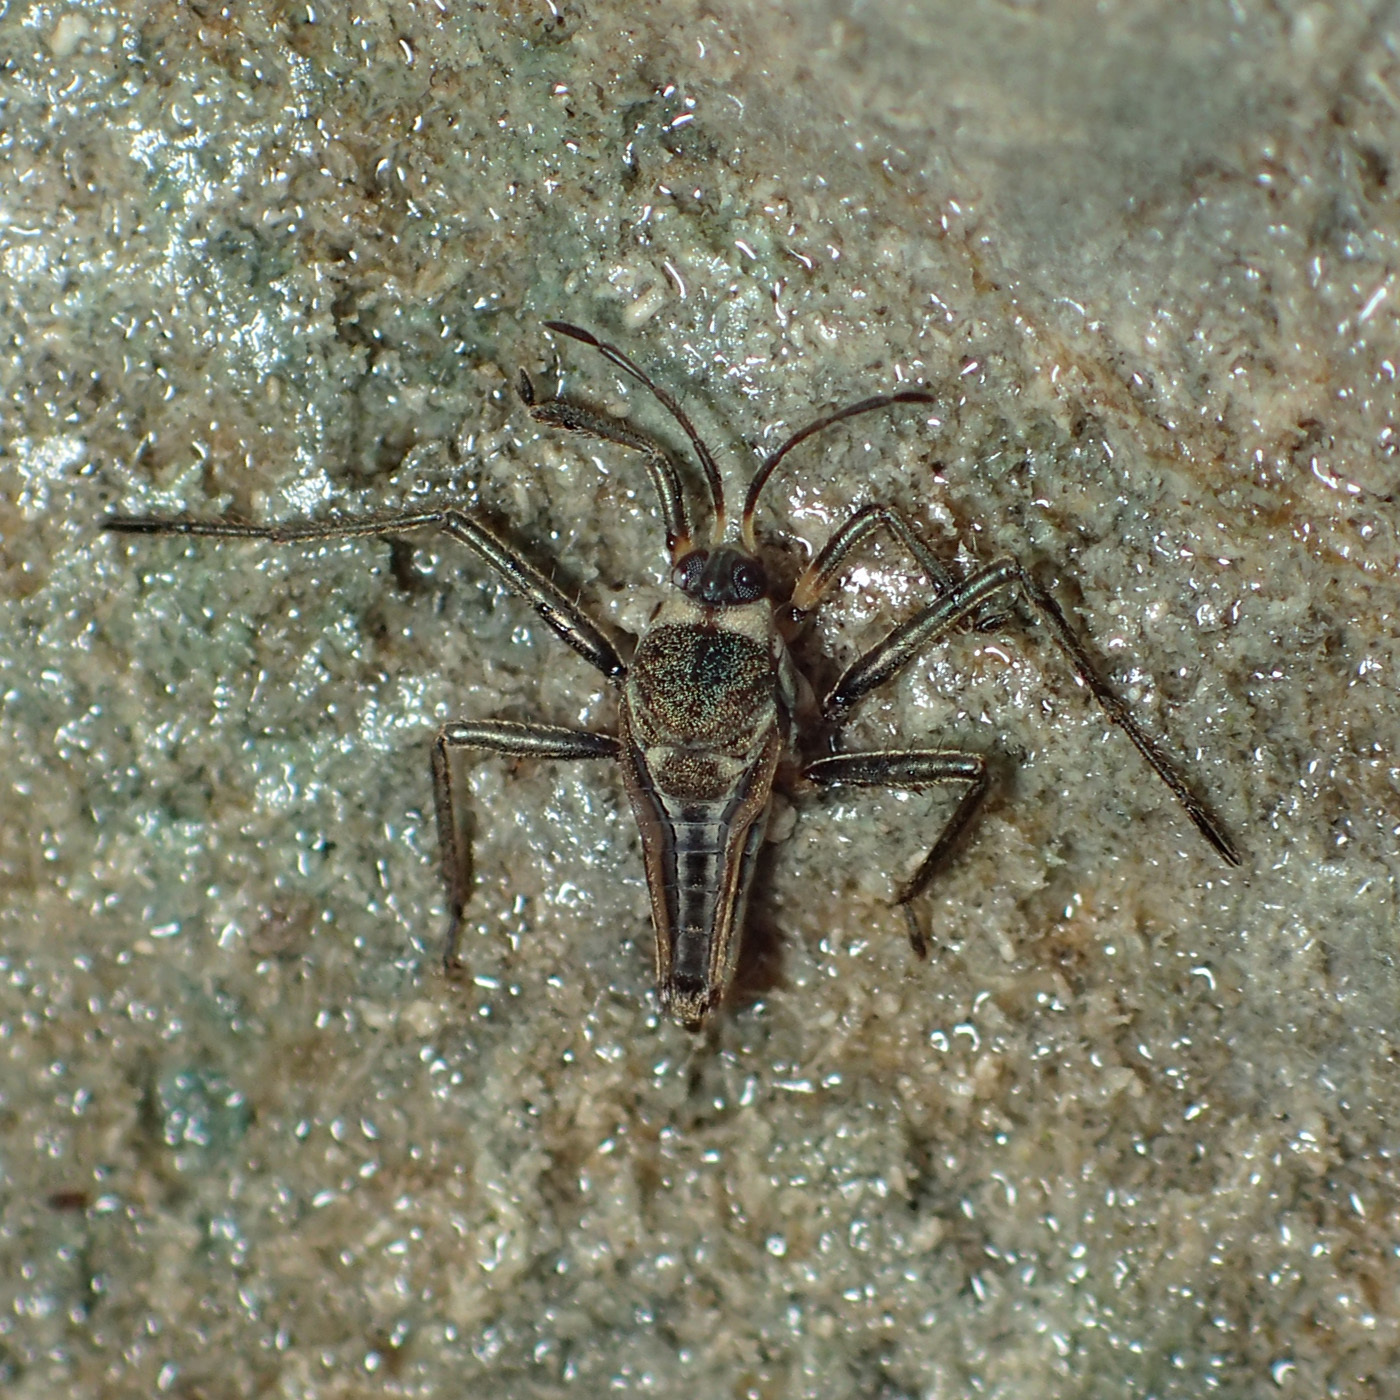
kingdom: Animalia
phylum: Arthropoda
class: Insecta
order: Hemiptera
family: Veliidae
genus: Rhagovelia
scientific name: Rhagovelia tayloriella
